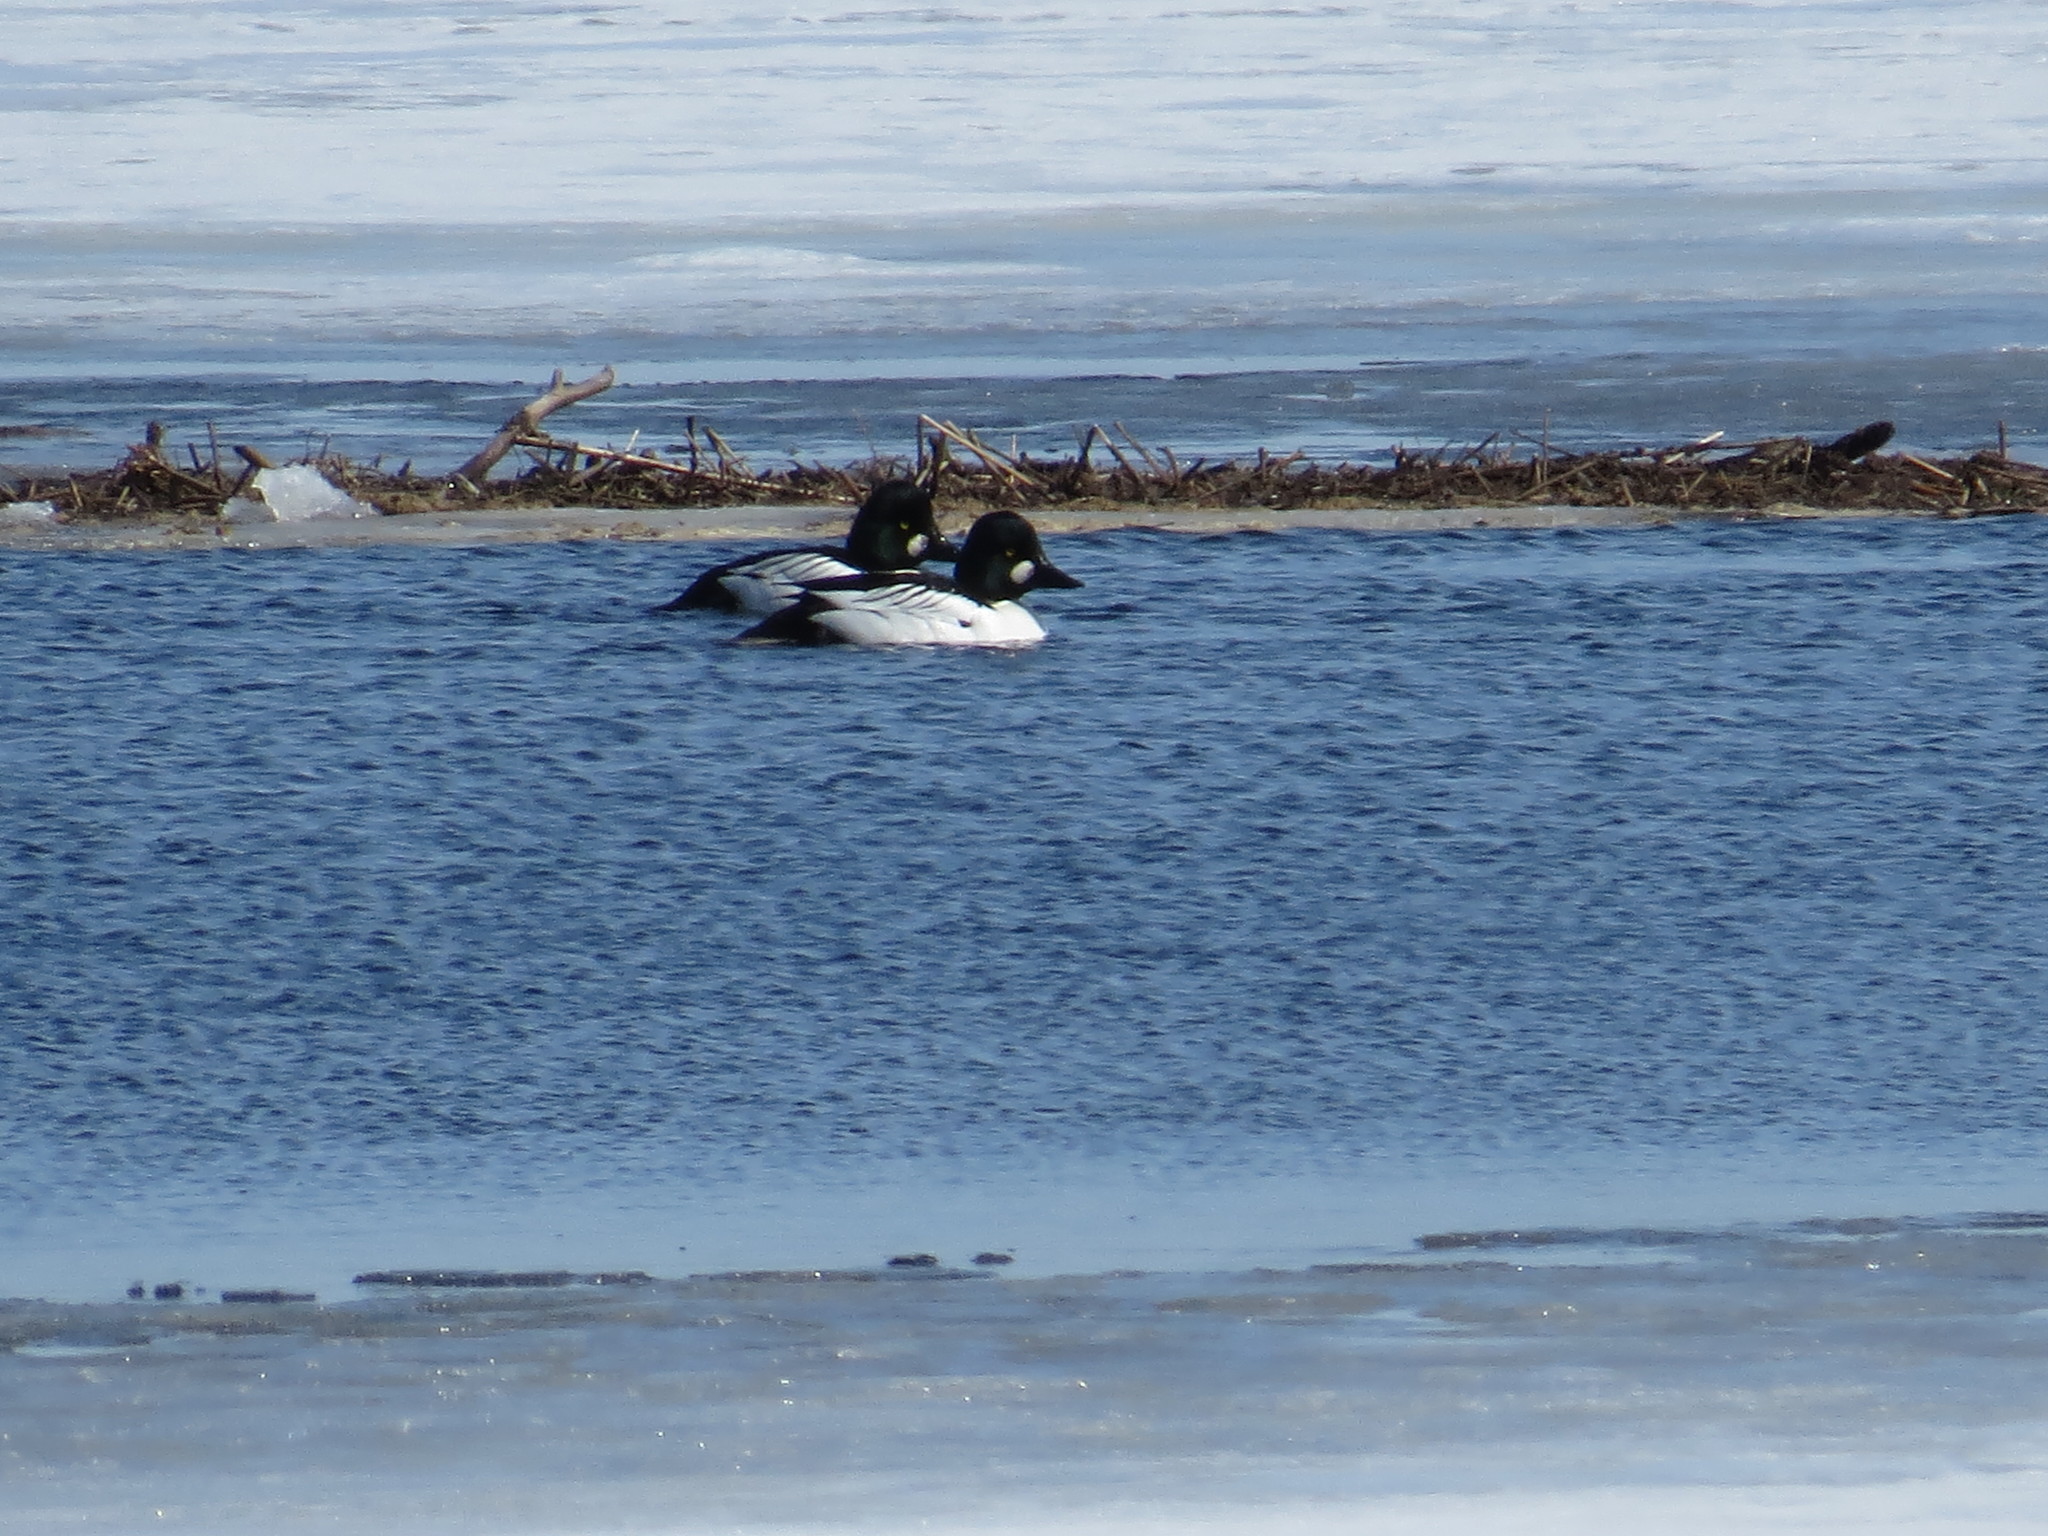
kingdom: Animalia
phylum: Chordata
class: Aves
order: Anseriformes
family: Anatidae
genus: Bucephala
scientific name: Bucephala clangula
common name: Common goldeneye
